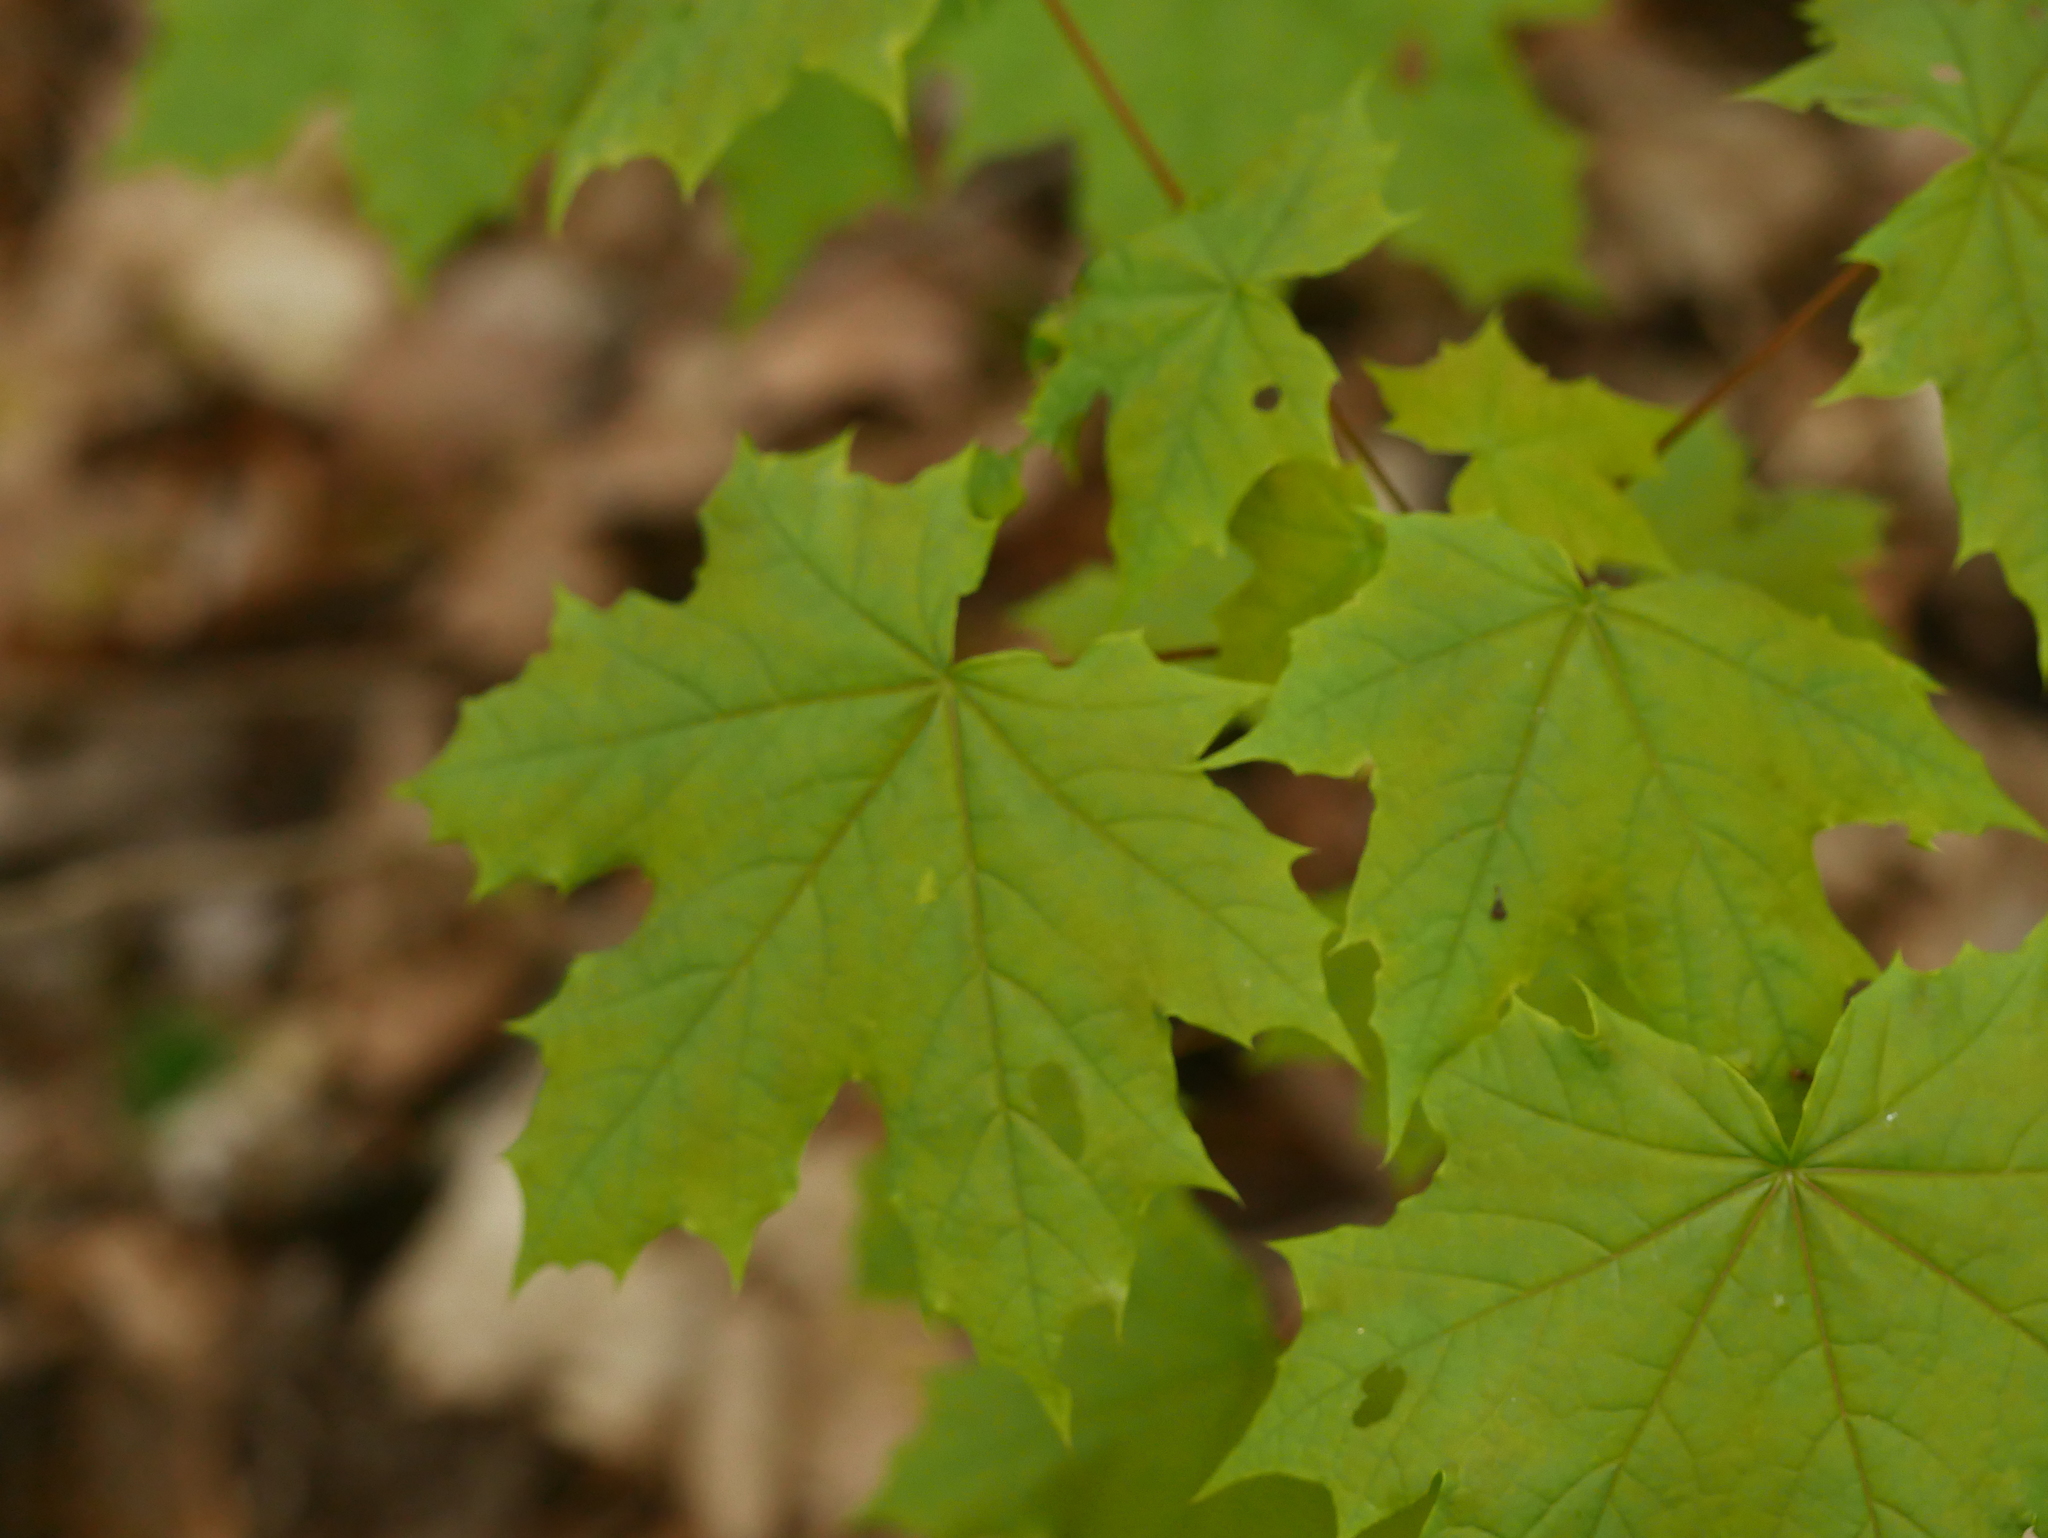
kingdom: Plantae
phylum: Tracheophyta
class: Magnoliopsida
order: Sapindales
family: Sapindaceae
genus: Acer
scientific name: Acer platanoides
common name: Norway maple
